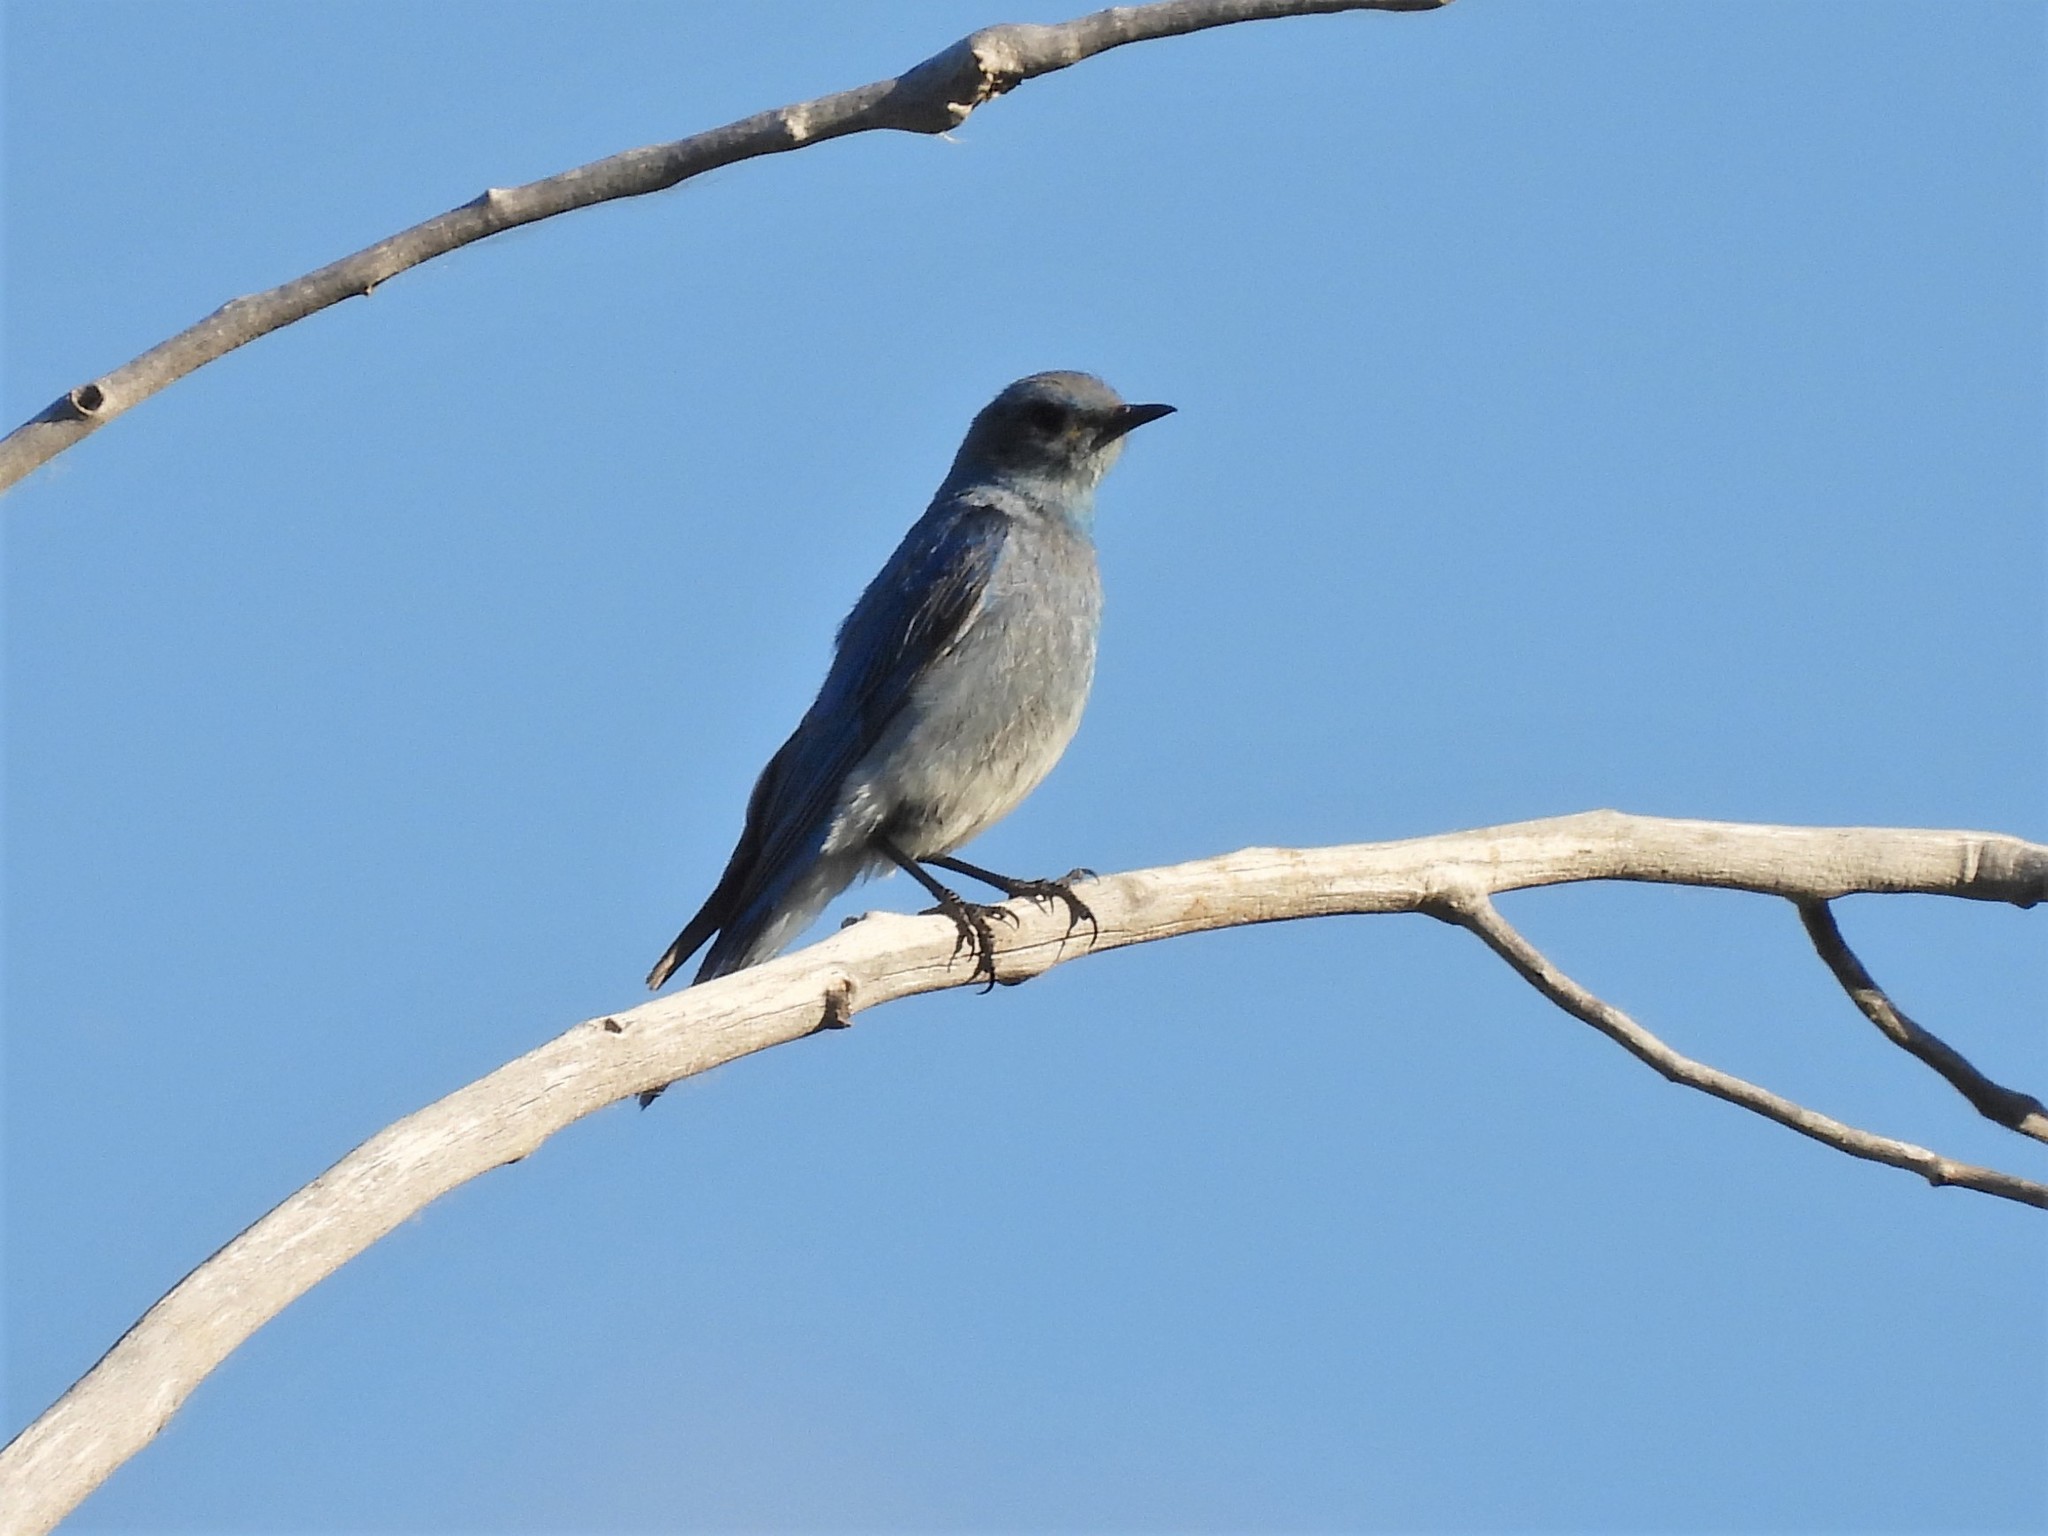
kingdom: Animalia
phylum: Chordata
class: Aves
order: Passeriformes
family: Turdidae
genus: Sialia
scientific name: Sialia currucoides
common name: Mountain bluebird
